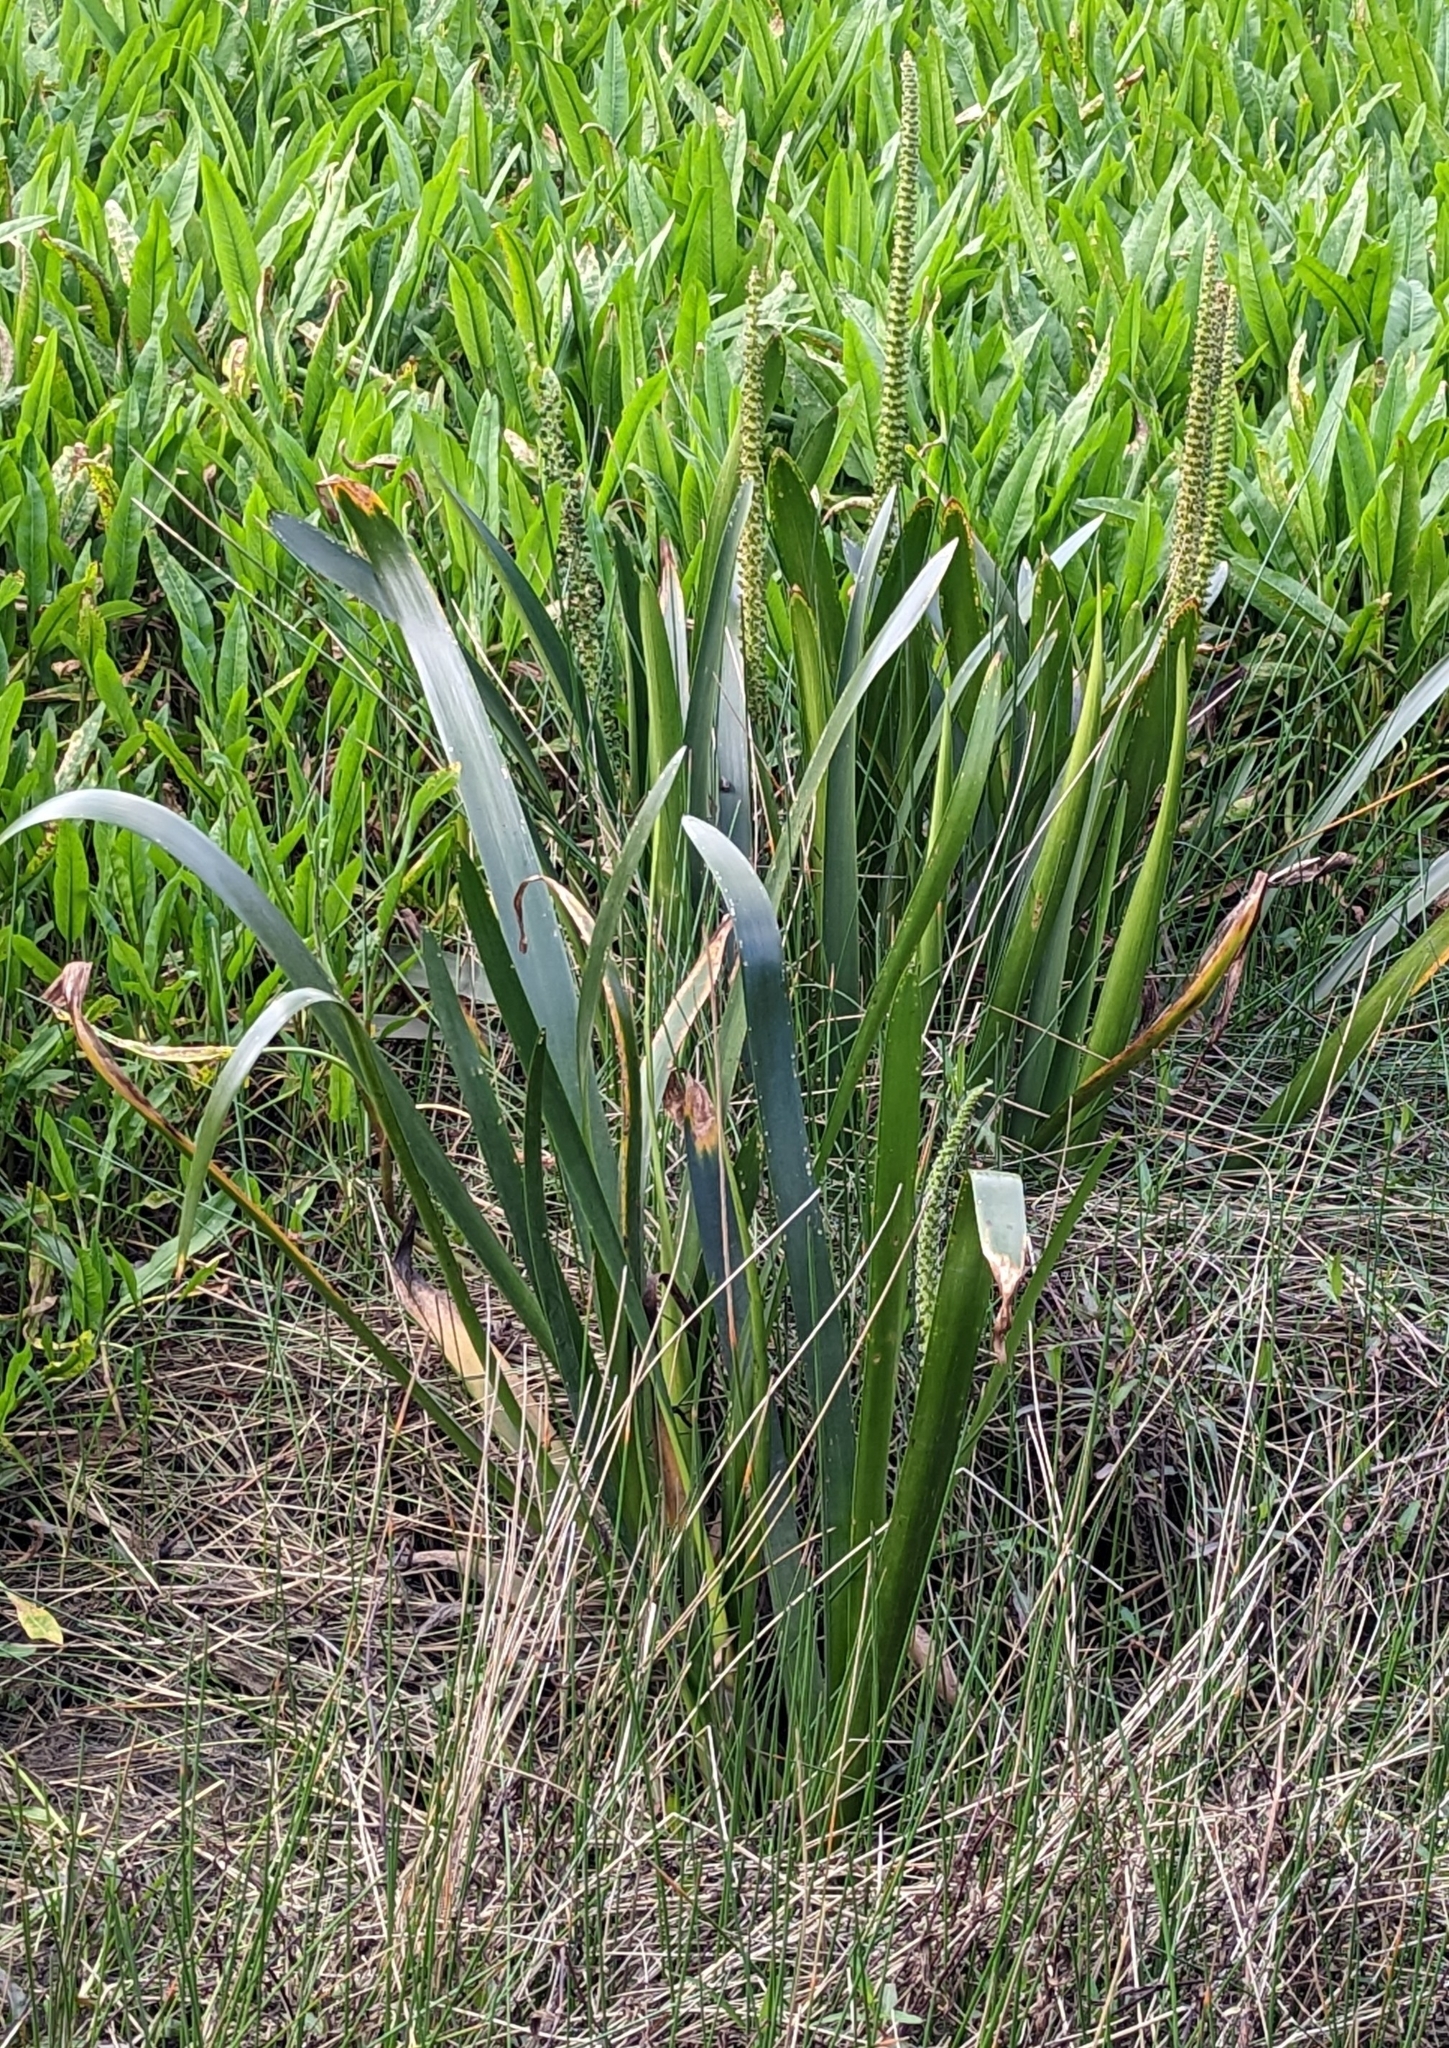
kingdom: Plantae
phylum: Tracheophyta
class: Liliopsida
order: Alismatales
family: Juncaginaceae
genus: Cycnogeton
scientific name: Cycnogeton procerum
